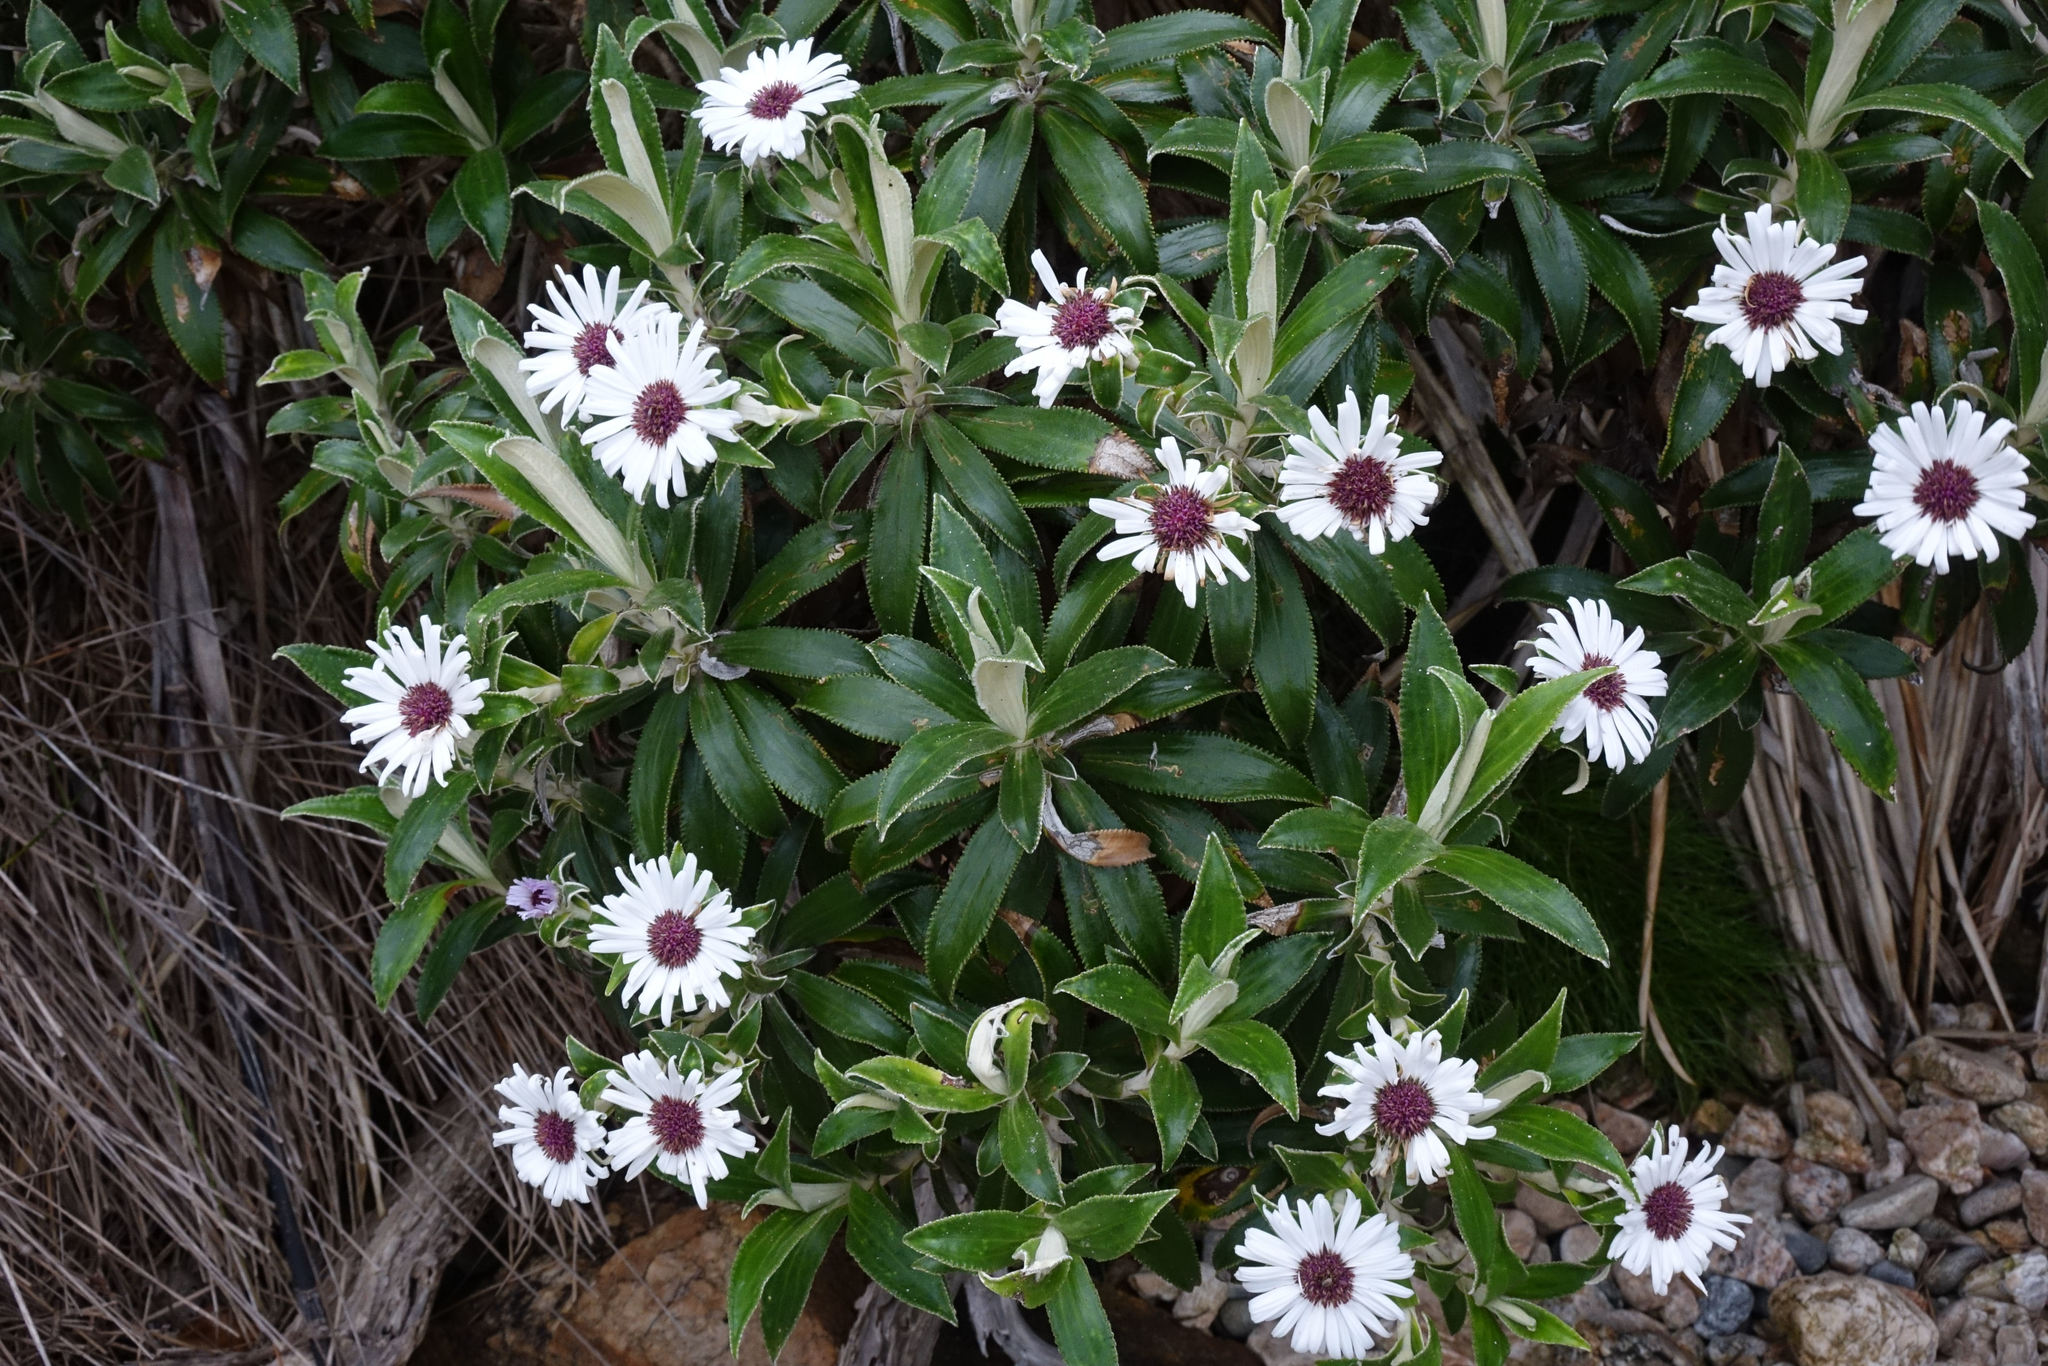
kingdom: Plantae
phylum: Tracheophyta
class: Magnoliopsida
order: Asterales
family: Asteraceae
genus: Macrolearia
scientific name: Macrolearia angustifolia
